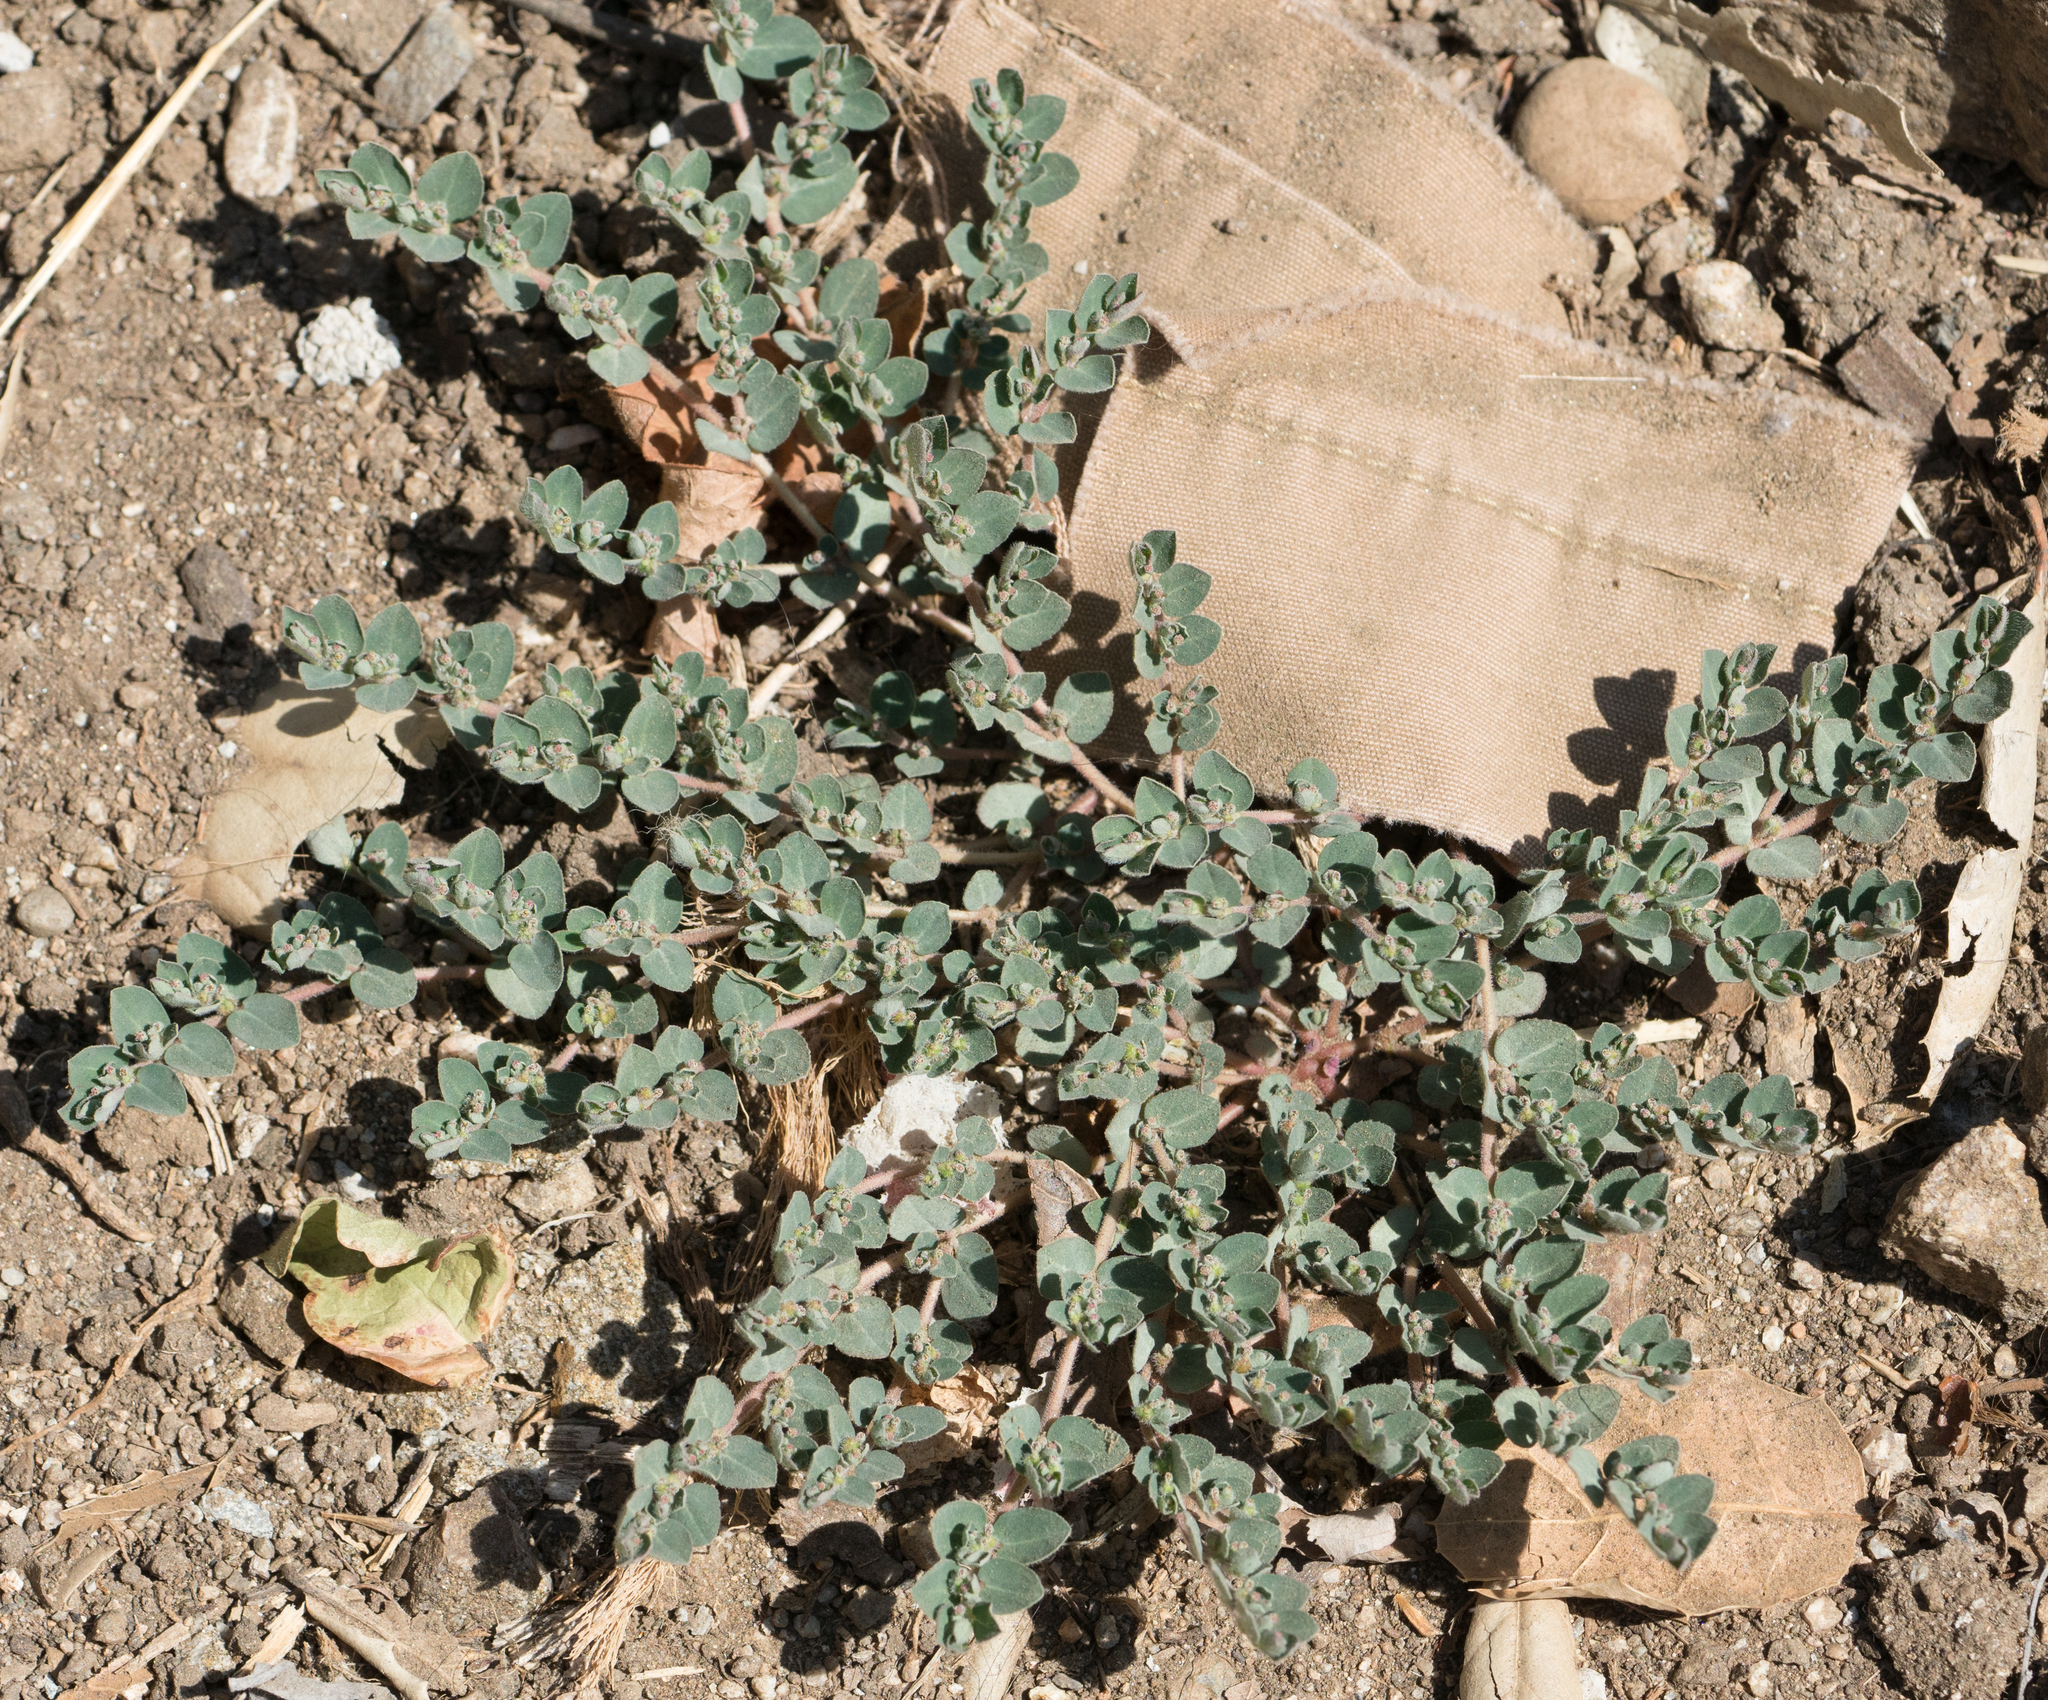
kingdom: Plantae
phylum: Tracheophyta
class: Magnoliopsida
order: Malpighiales
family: Euphorbiaceae
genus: Euphorbia
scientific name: Euphorbia prostrata
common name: Prostrate sandmat
